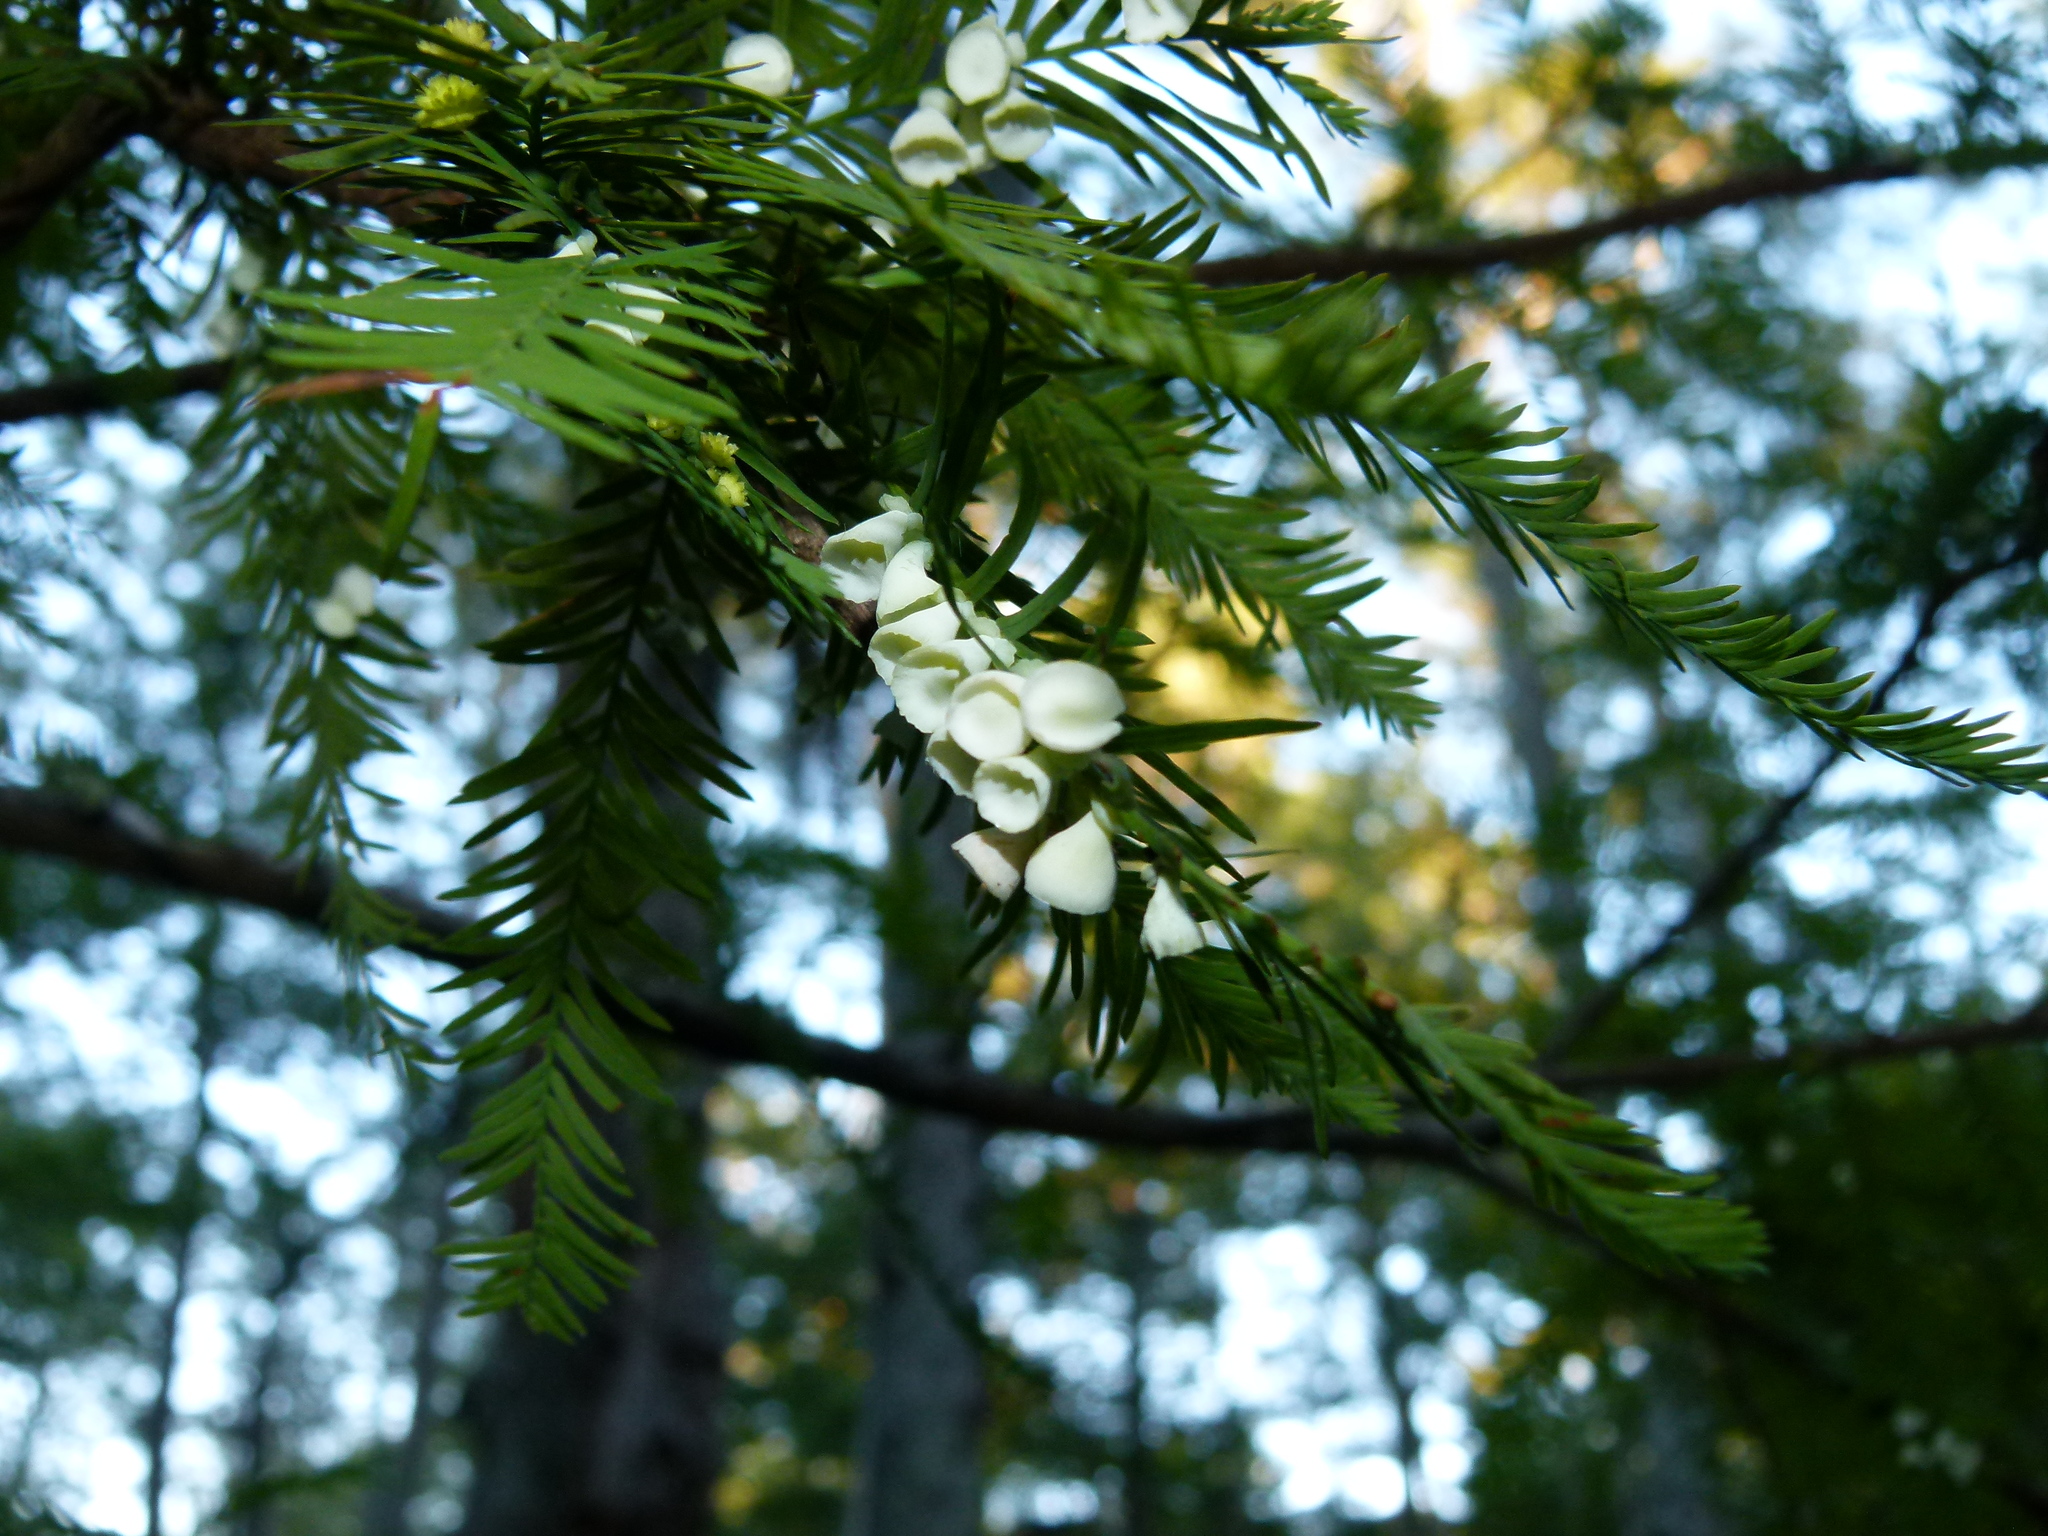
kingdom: Animalia
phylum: Arthropoda
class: Insecta
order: Diptera
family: Cecidomyiidae
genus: Taxodiomyia
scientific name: Taxodiomyia cupressi
